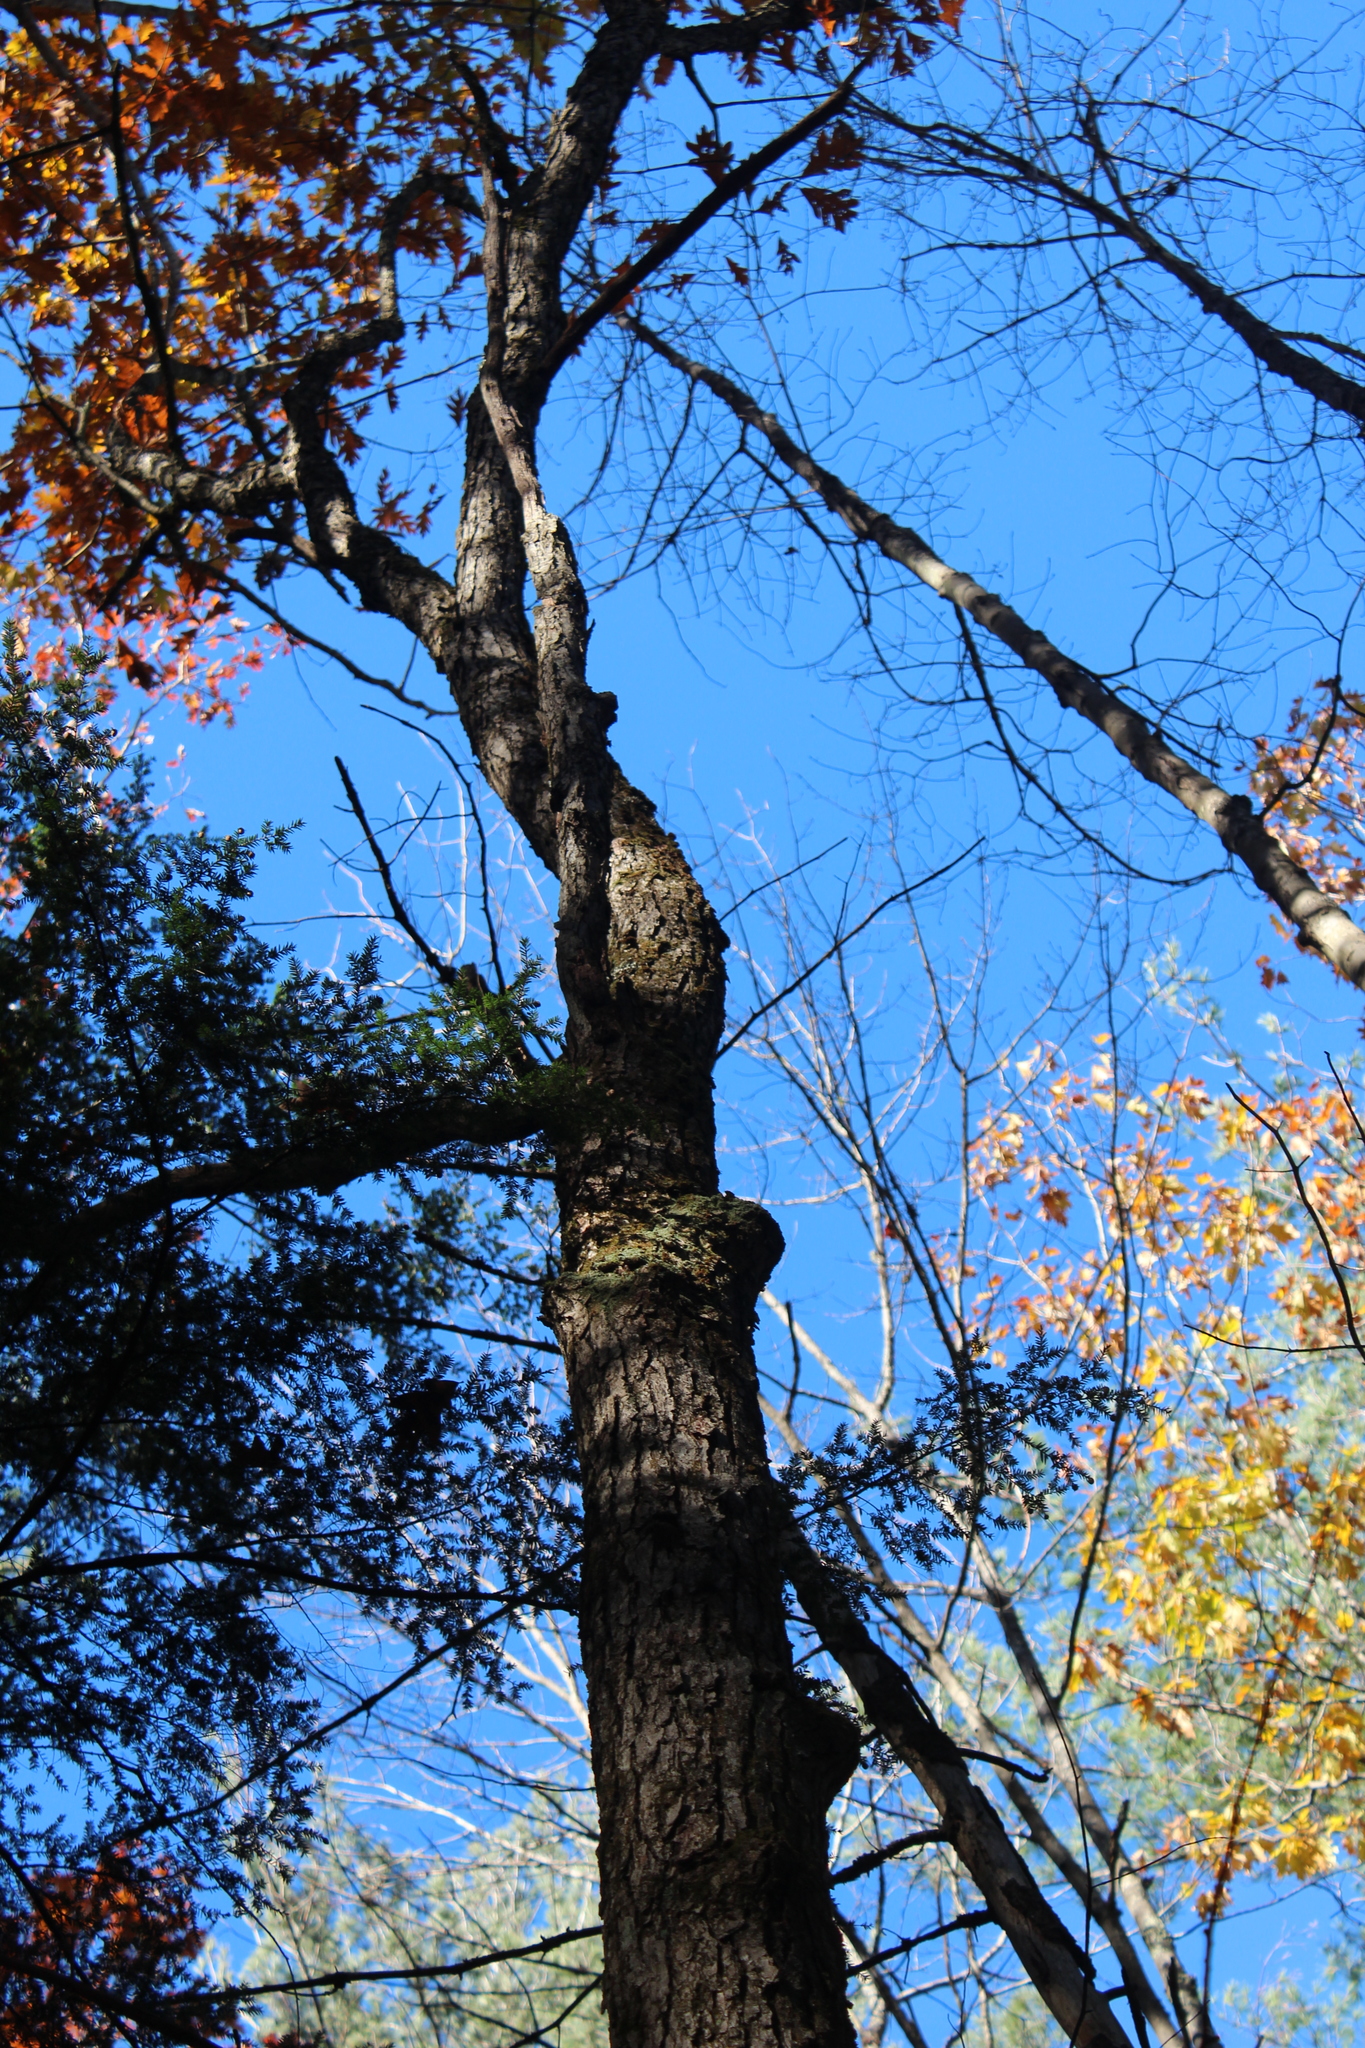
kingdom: Plantae
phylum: Tracheophyta
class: Magnoliopsida
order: Fagales
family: Fagaceae
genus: Quercus
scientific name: Quercus alba
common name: White oak
